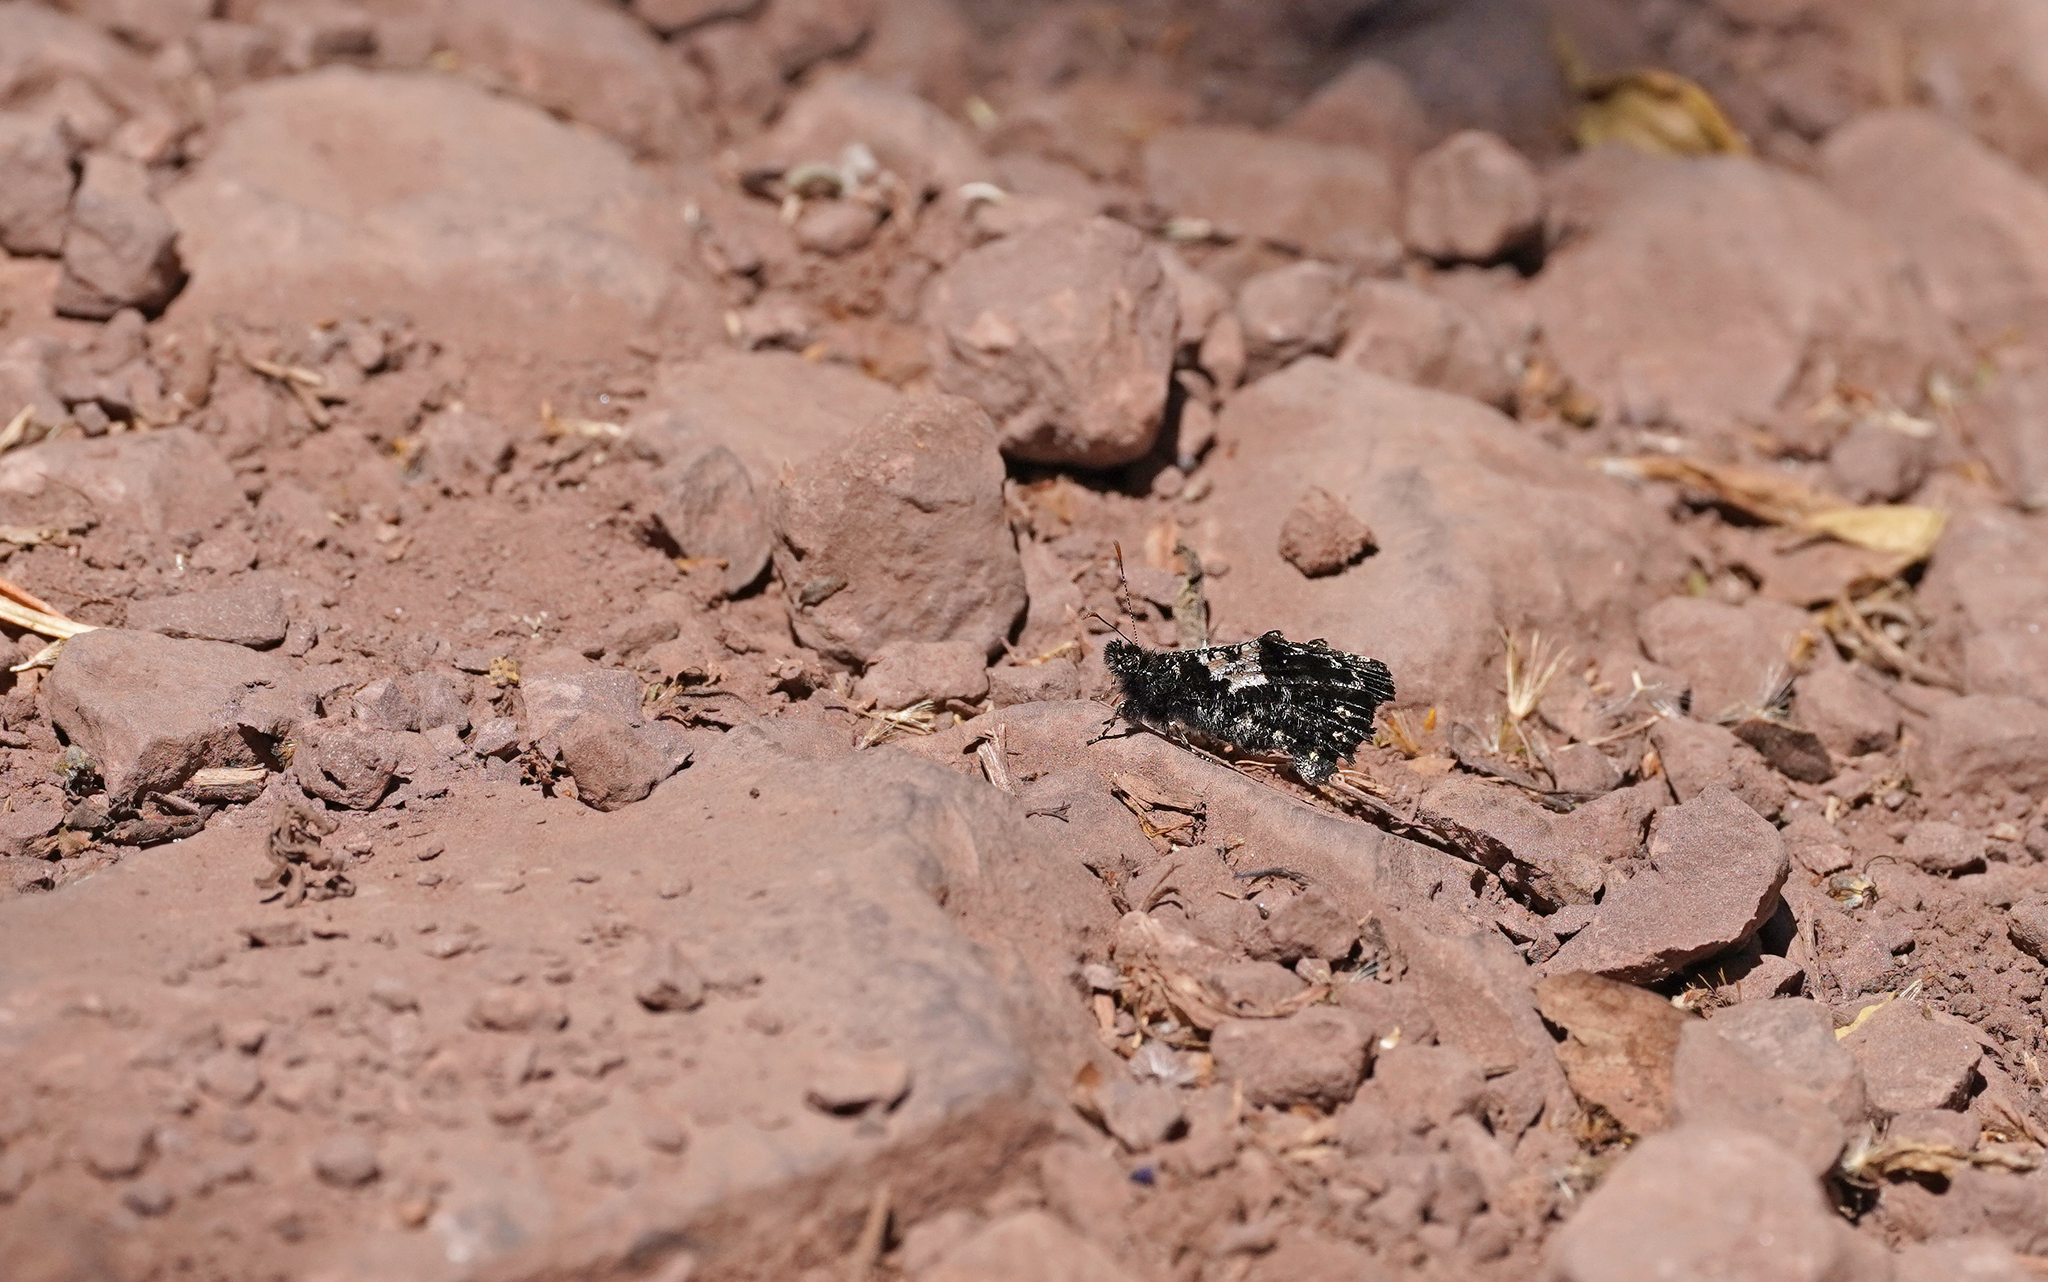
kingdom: Animalia
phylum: Arthropoda
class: Insecta
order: Lepidoptera
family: Nymphalidae
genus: Steroma
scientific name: Steroma bega
